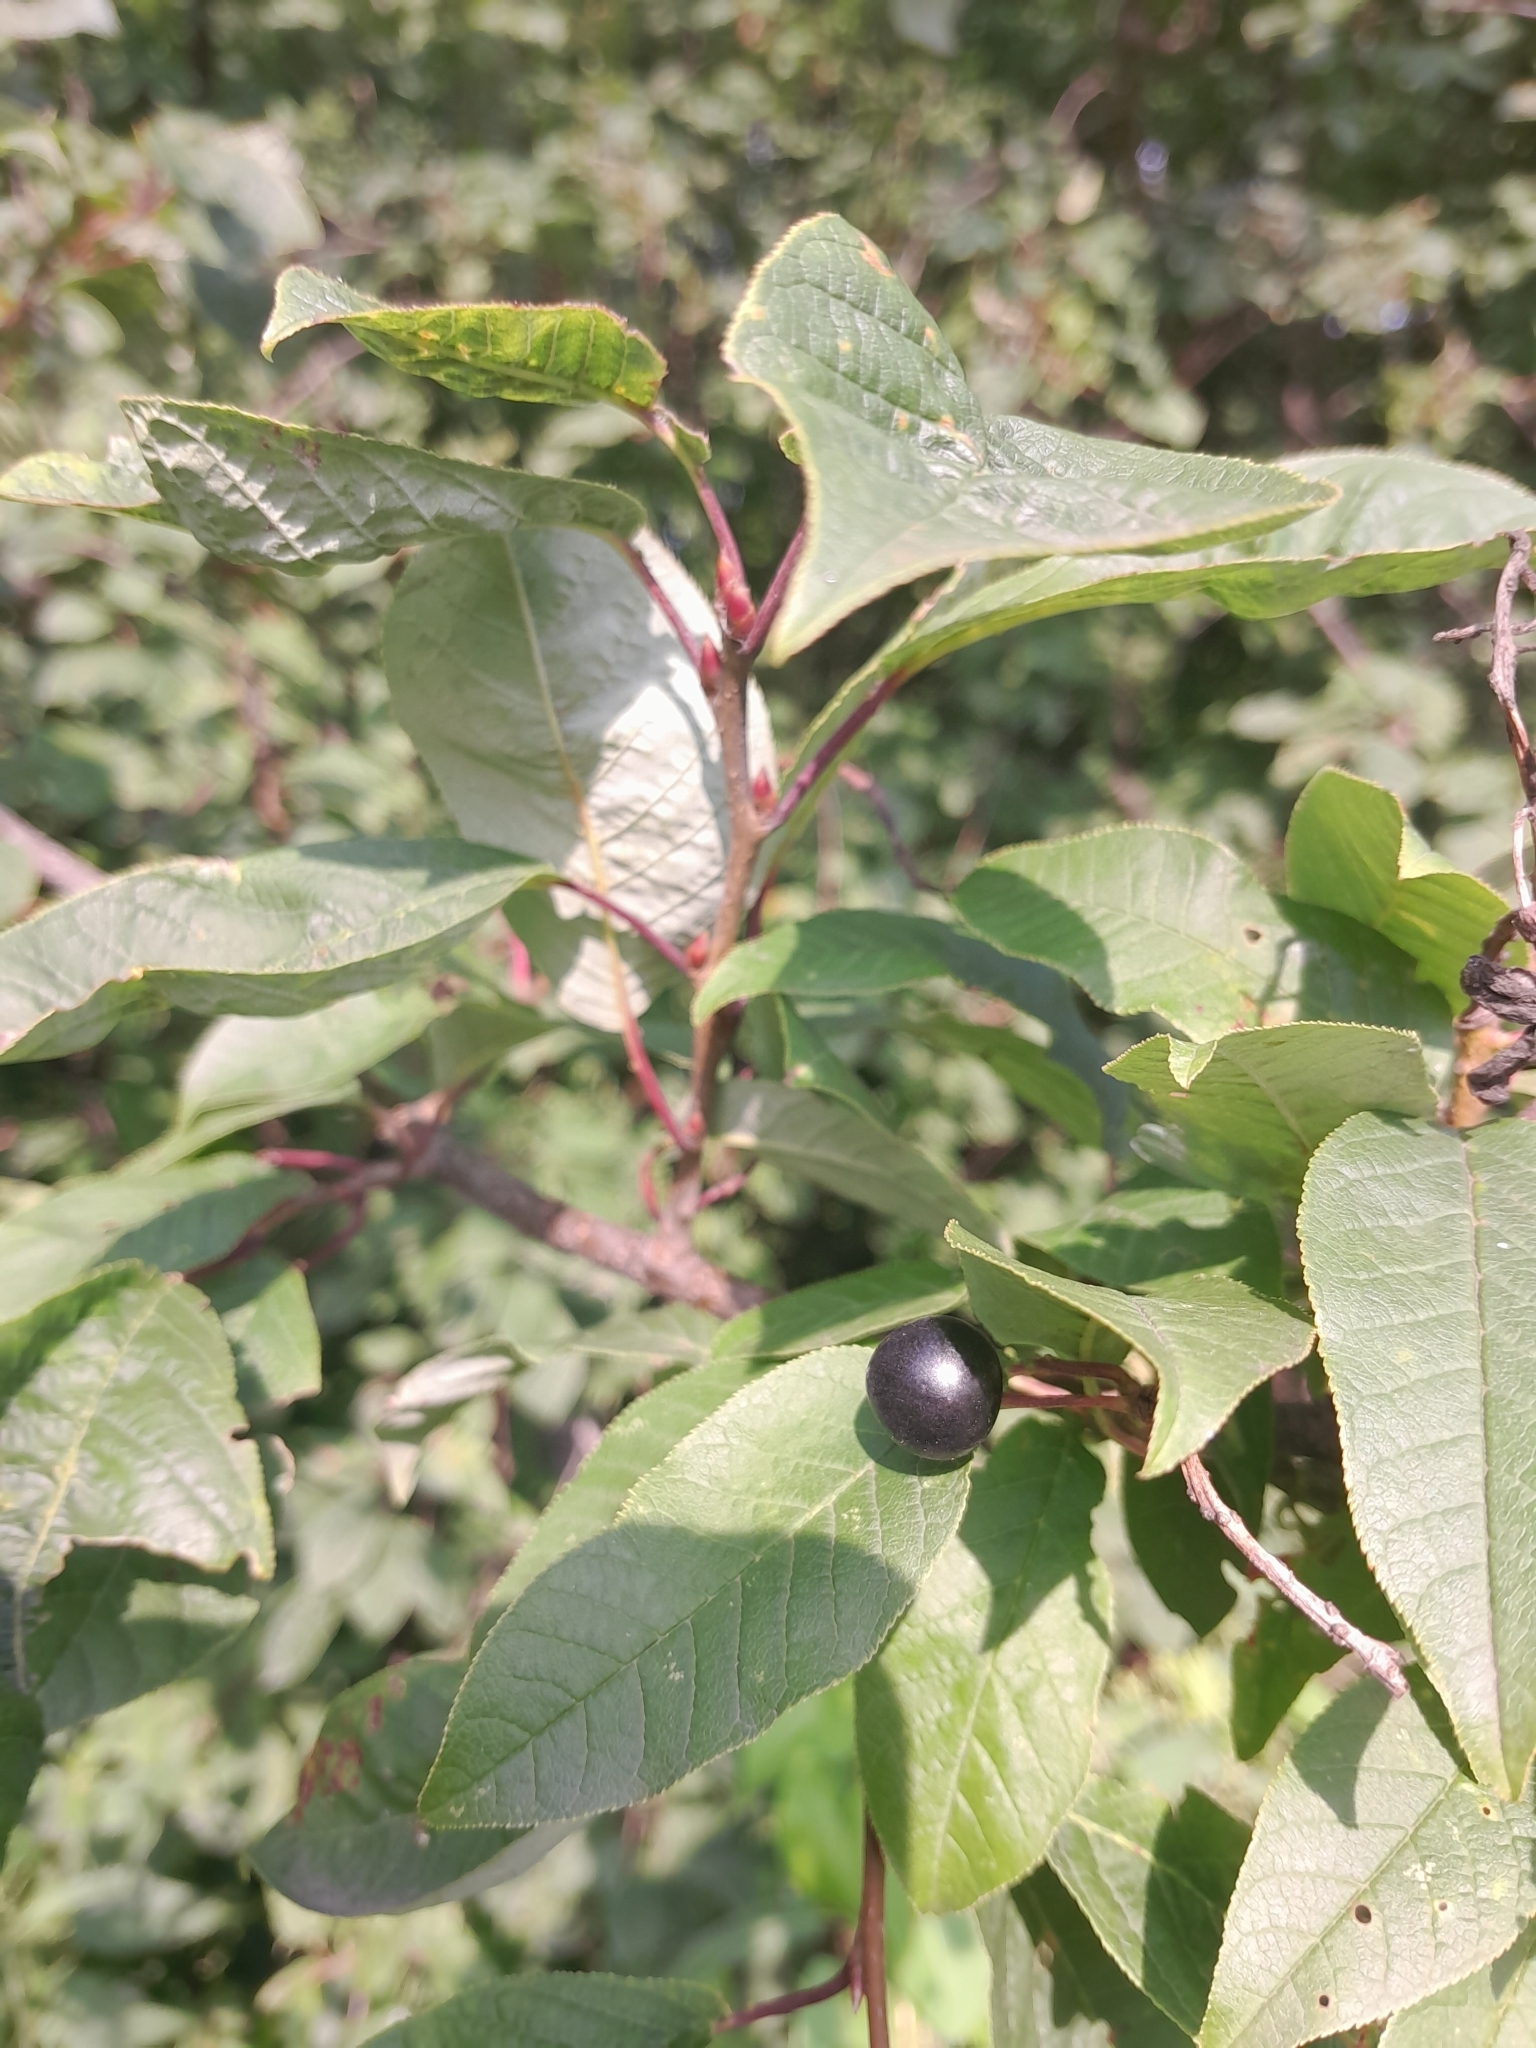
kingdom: Plantae
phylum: Tracheophyta
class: Magnoliopsida
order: Rosales
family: Rosaceae
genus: Prunus
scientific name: Prunus padus
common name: Bird cherry
